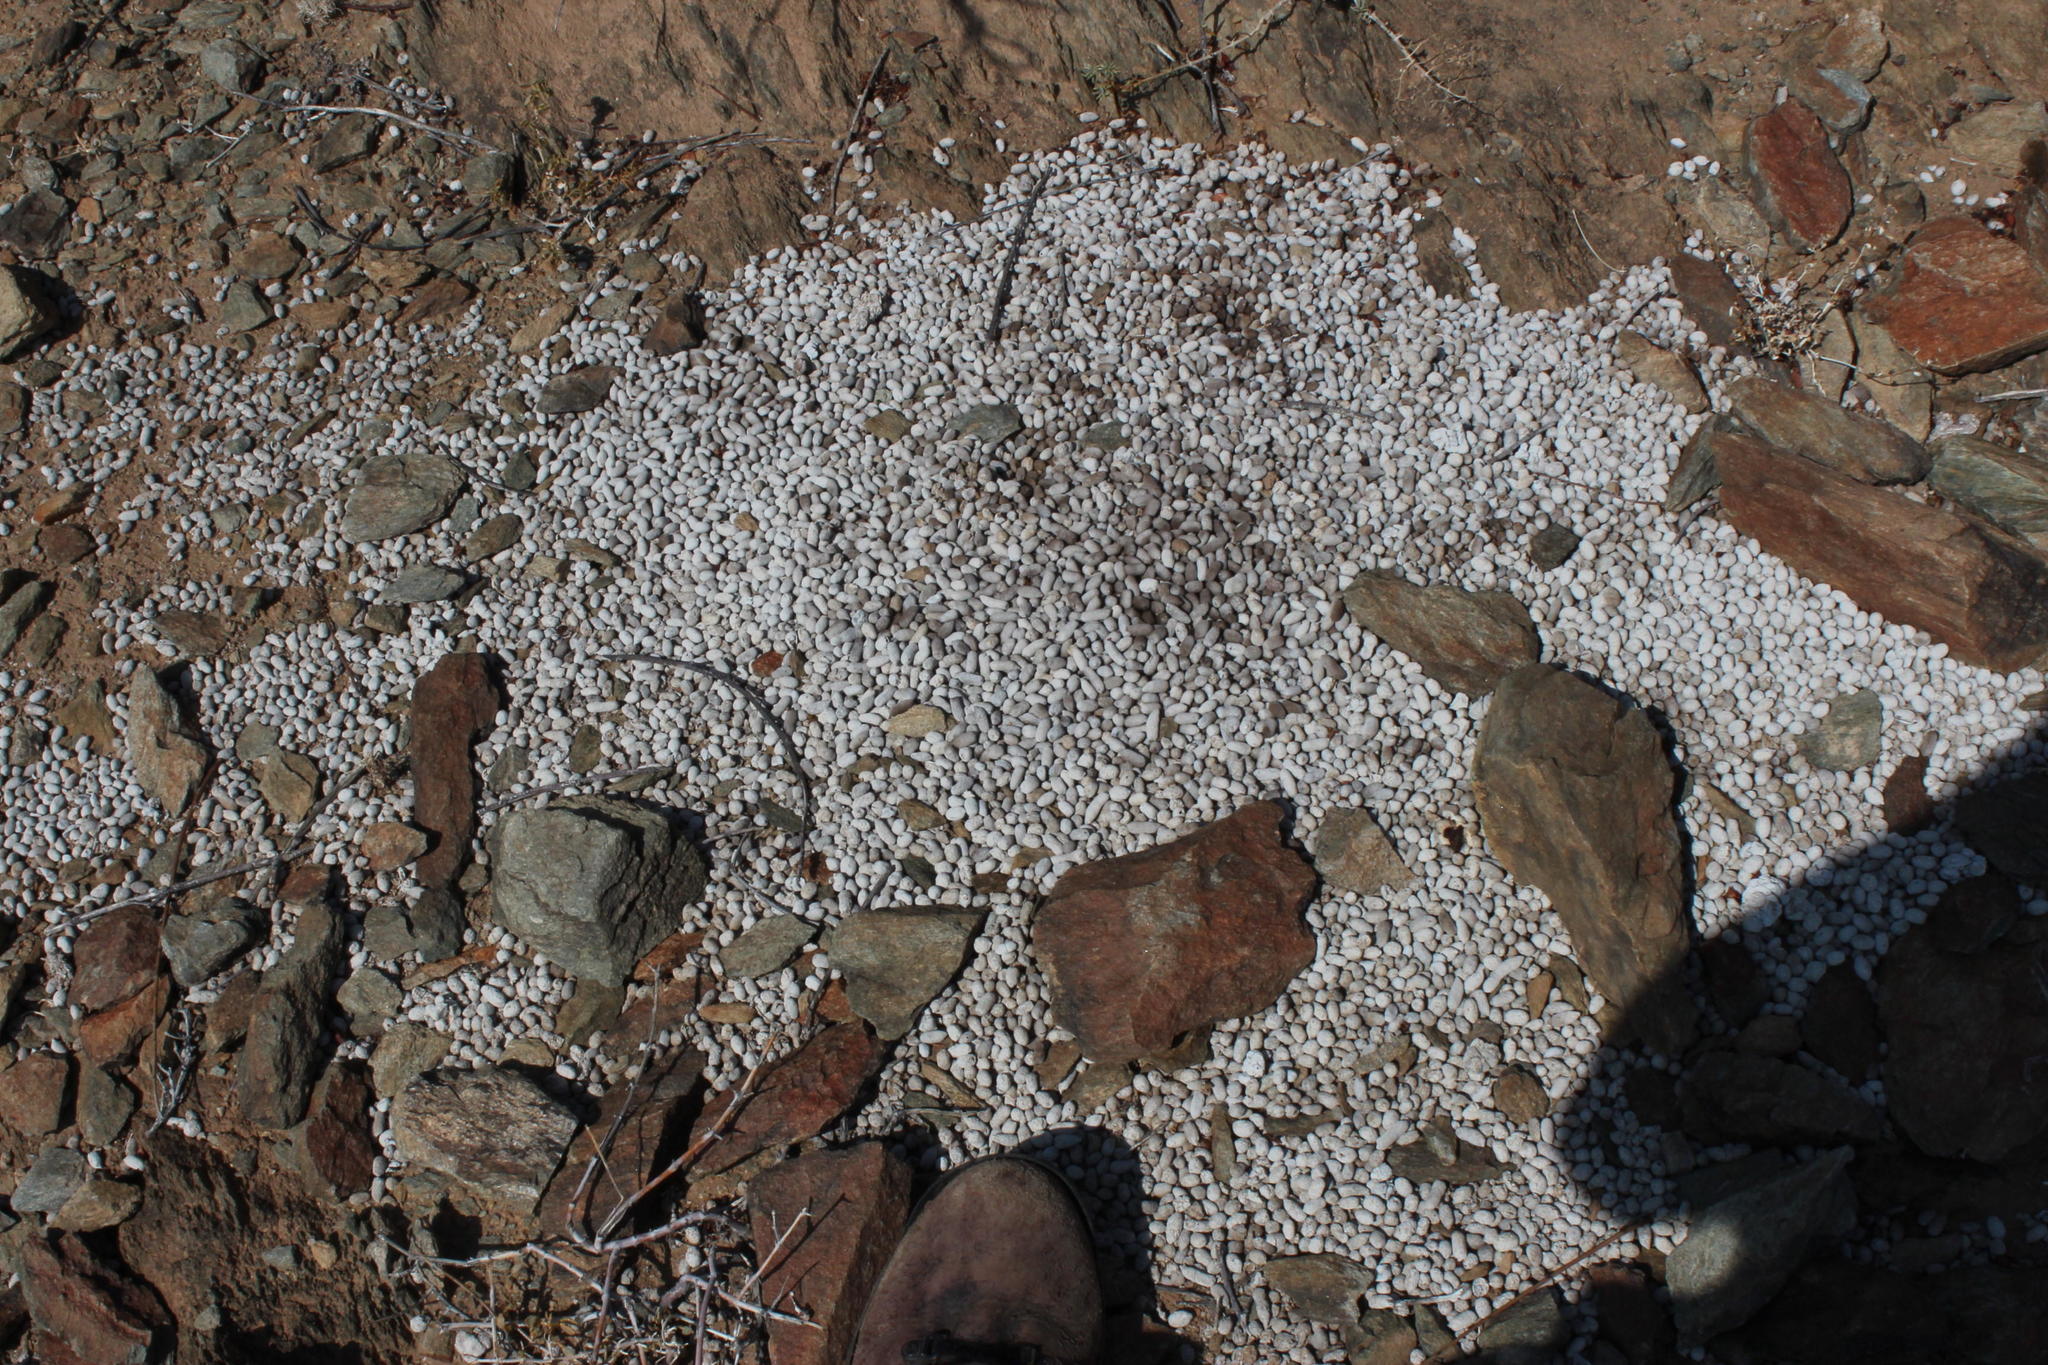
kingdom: Animalia
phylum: Chordata
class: Mammalia
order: Artiodactyla
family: Bovidae
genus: Oreotragus
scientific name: Oreotragus oreotragus
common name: Klipspringer
